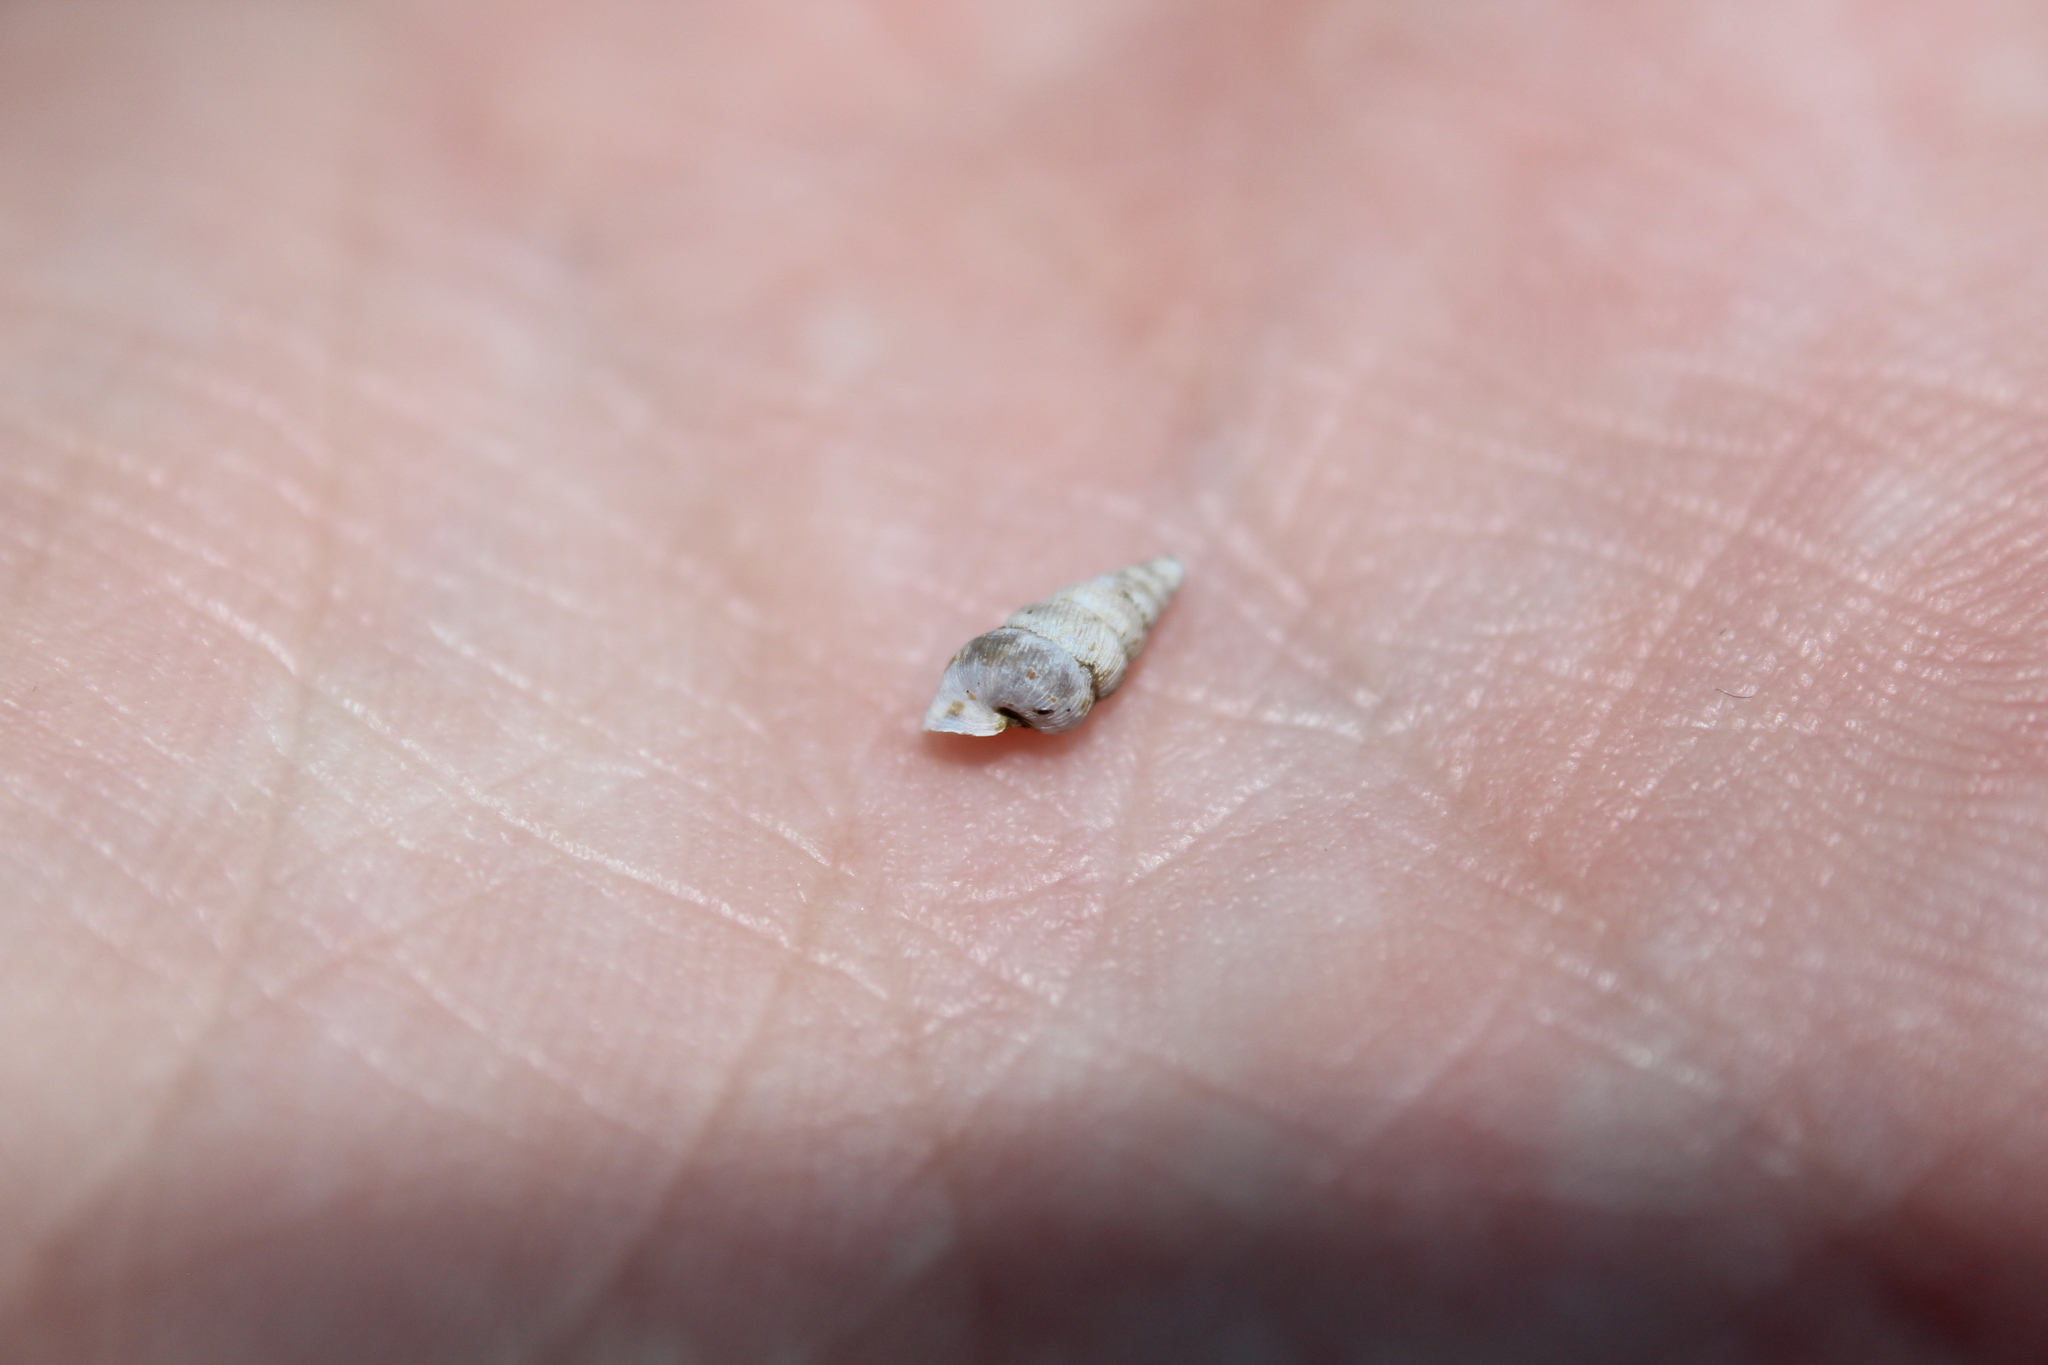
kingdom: Animalia
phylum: Mollusca
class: Gastropoda
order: Architaenioglossa
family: Cochlostomatidae
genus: Cochlostoma
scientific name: Cochlostoma septemspirale
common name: Seven-whorl snail
